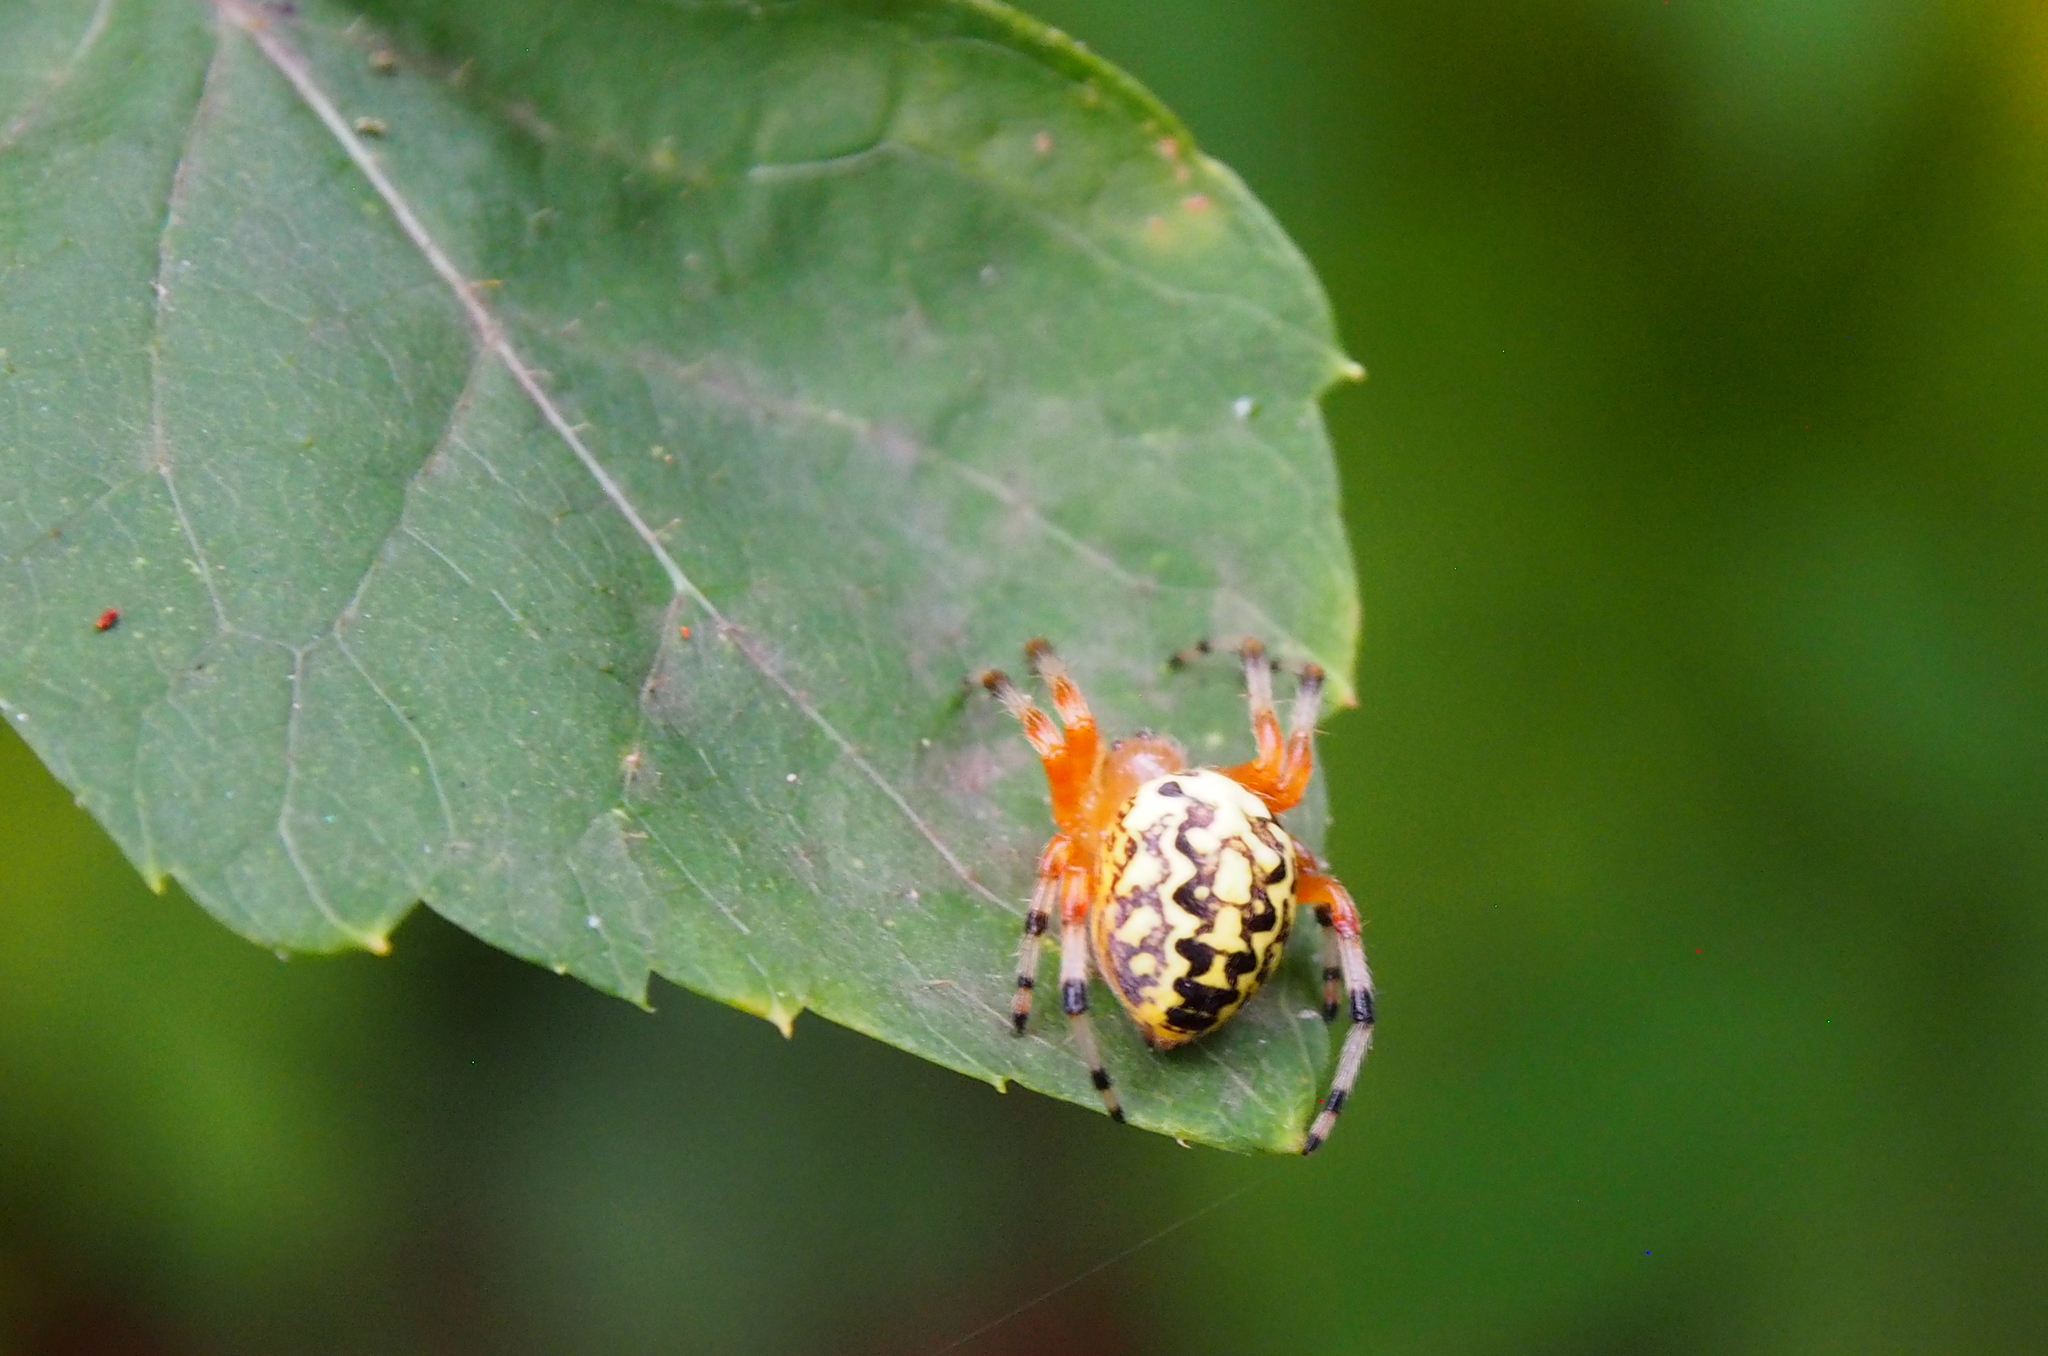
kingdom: Animalia
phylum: Arthropoda
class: Arachnida
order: Araneae
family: Araneidae
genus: Araneus
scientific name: Araneus marmoreus
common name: Marbled orbweaver
